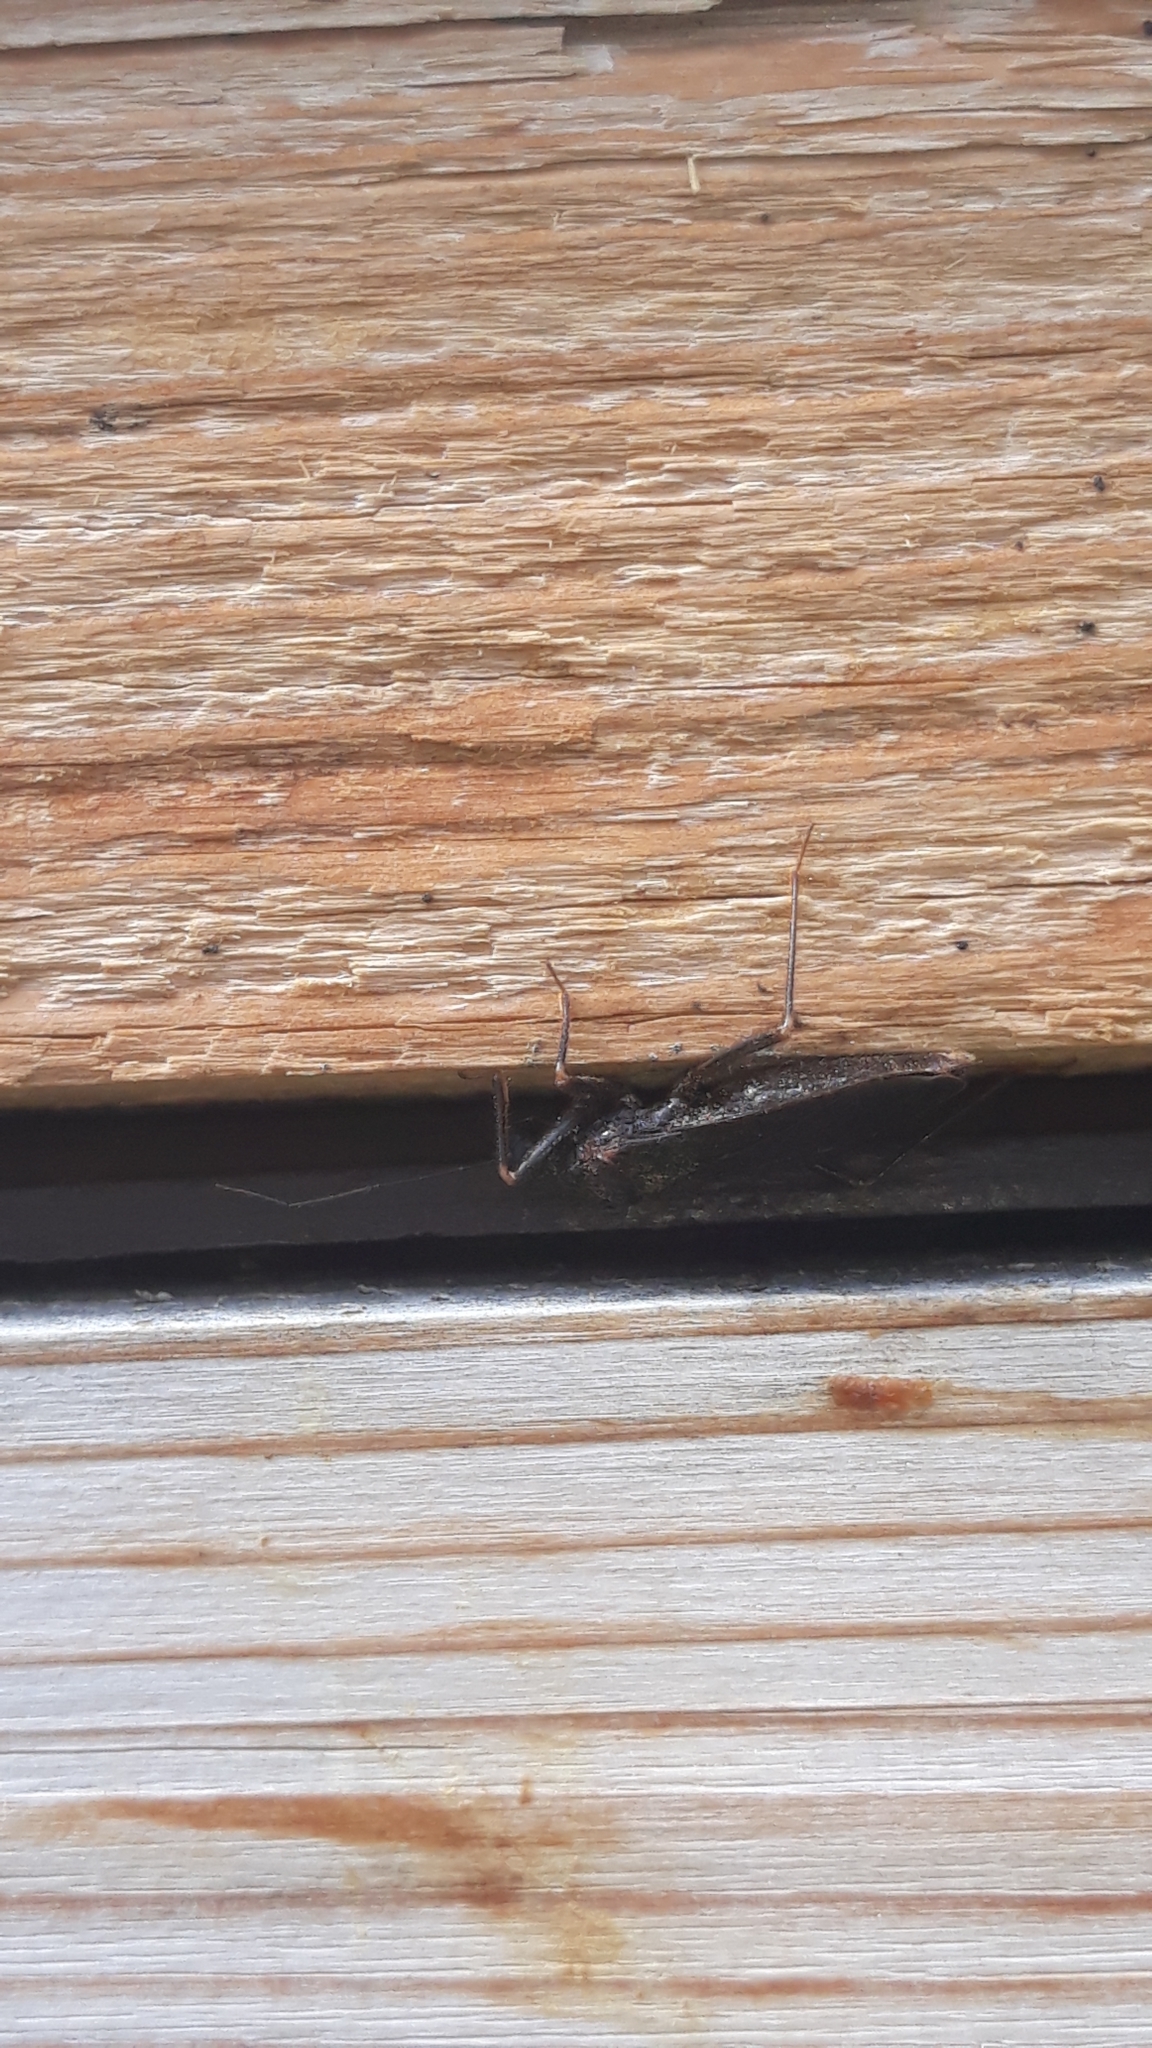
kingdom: Animalia
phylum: Arthropoda
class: Insecta
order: Hemiptera
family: Reduviidae
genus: Reduvius
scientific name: Reduvius personatus
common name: Masked hunter
